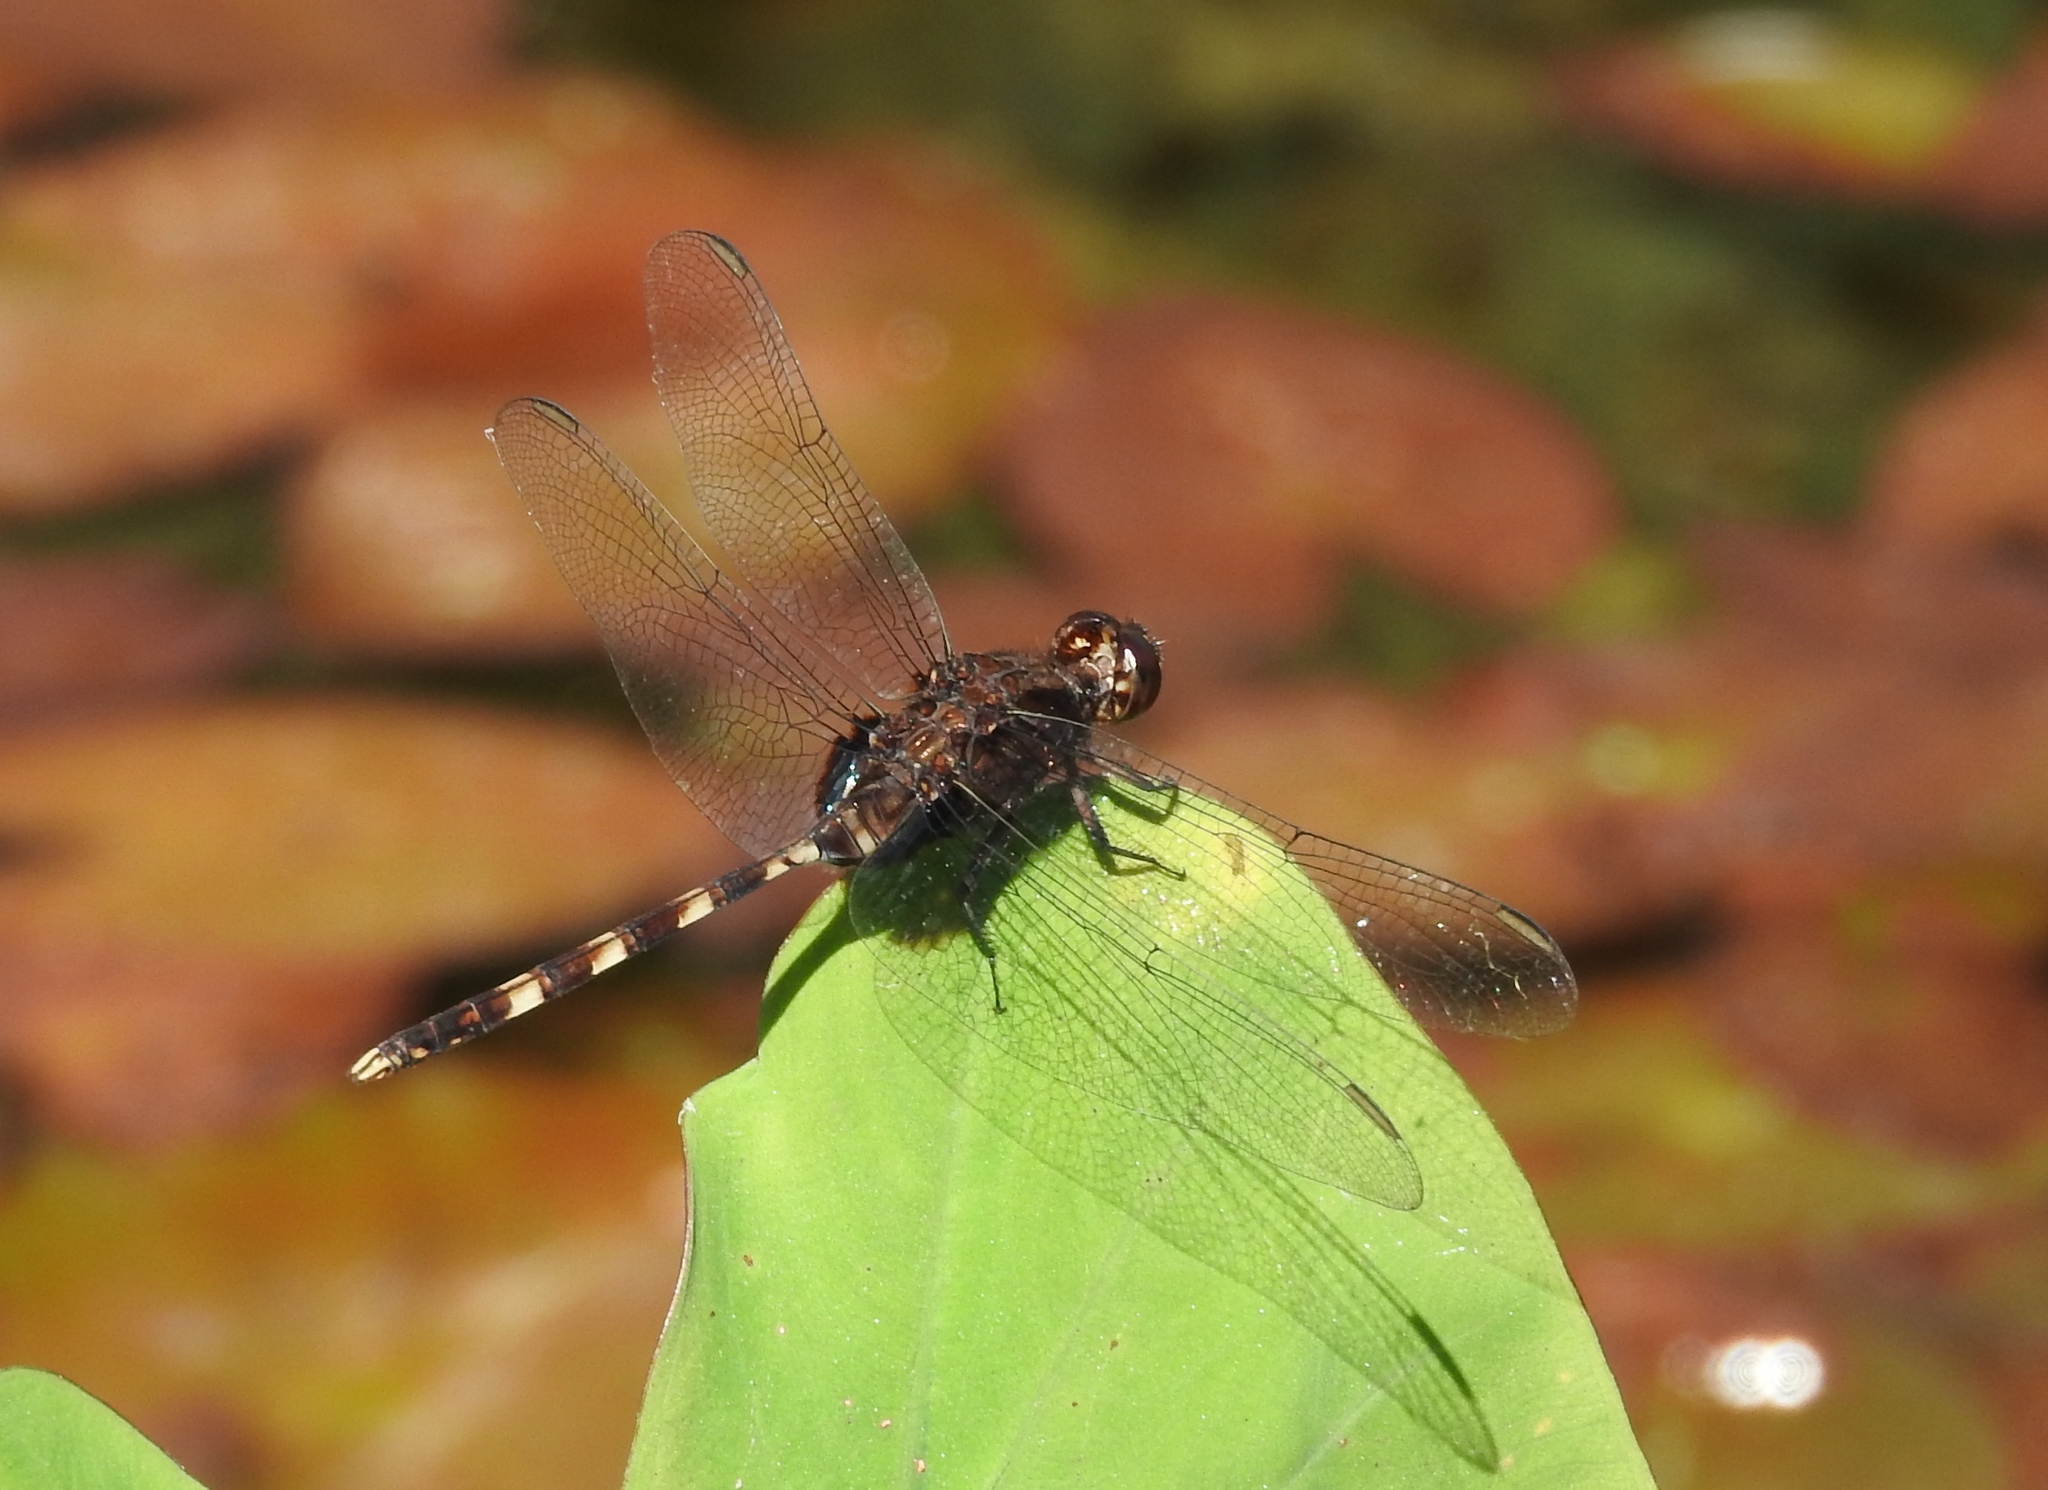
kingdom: Animalia
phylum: Arthropoda
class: Insecta
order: Odonata
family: Libellulidae
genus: Erythemis
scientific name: Erythemis plebeja
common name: Pin-tailed pondhawk
